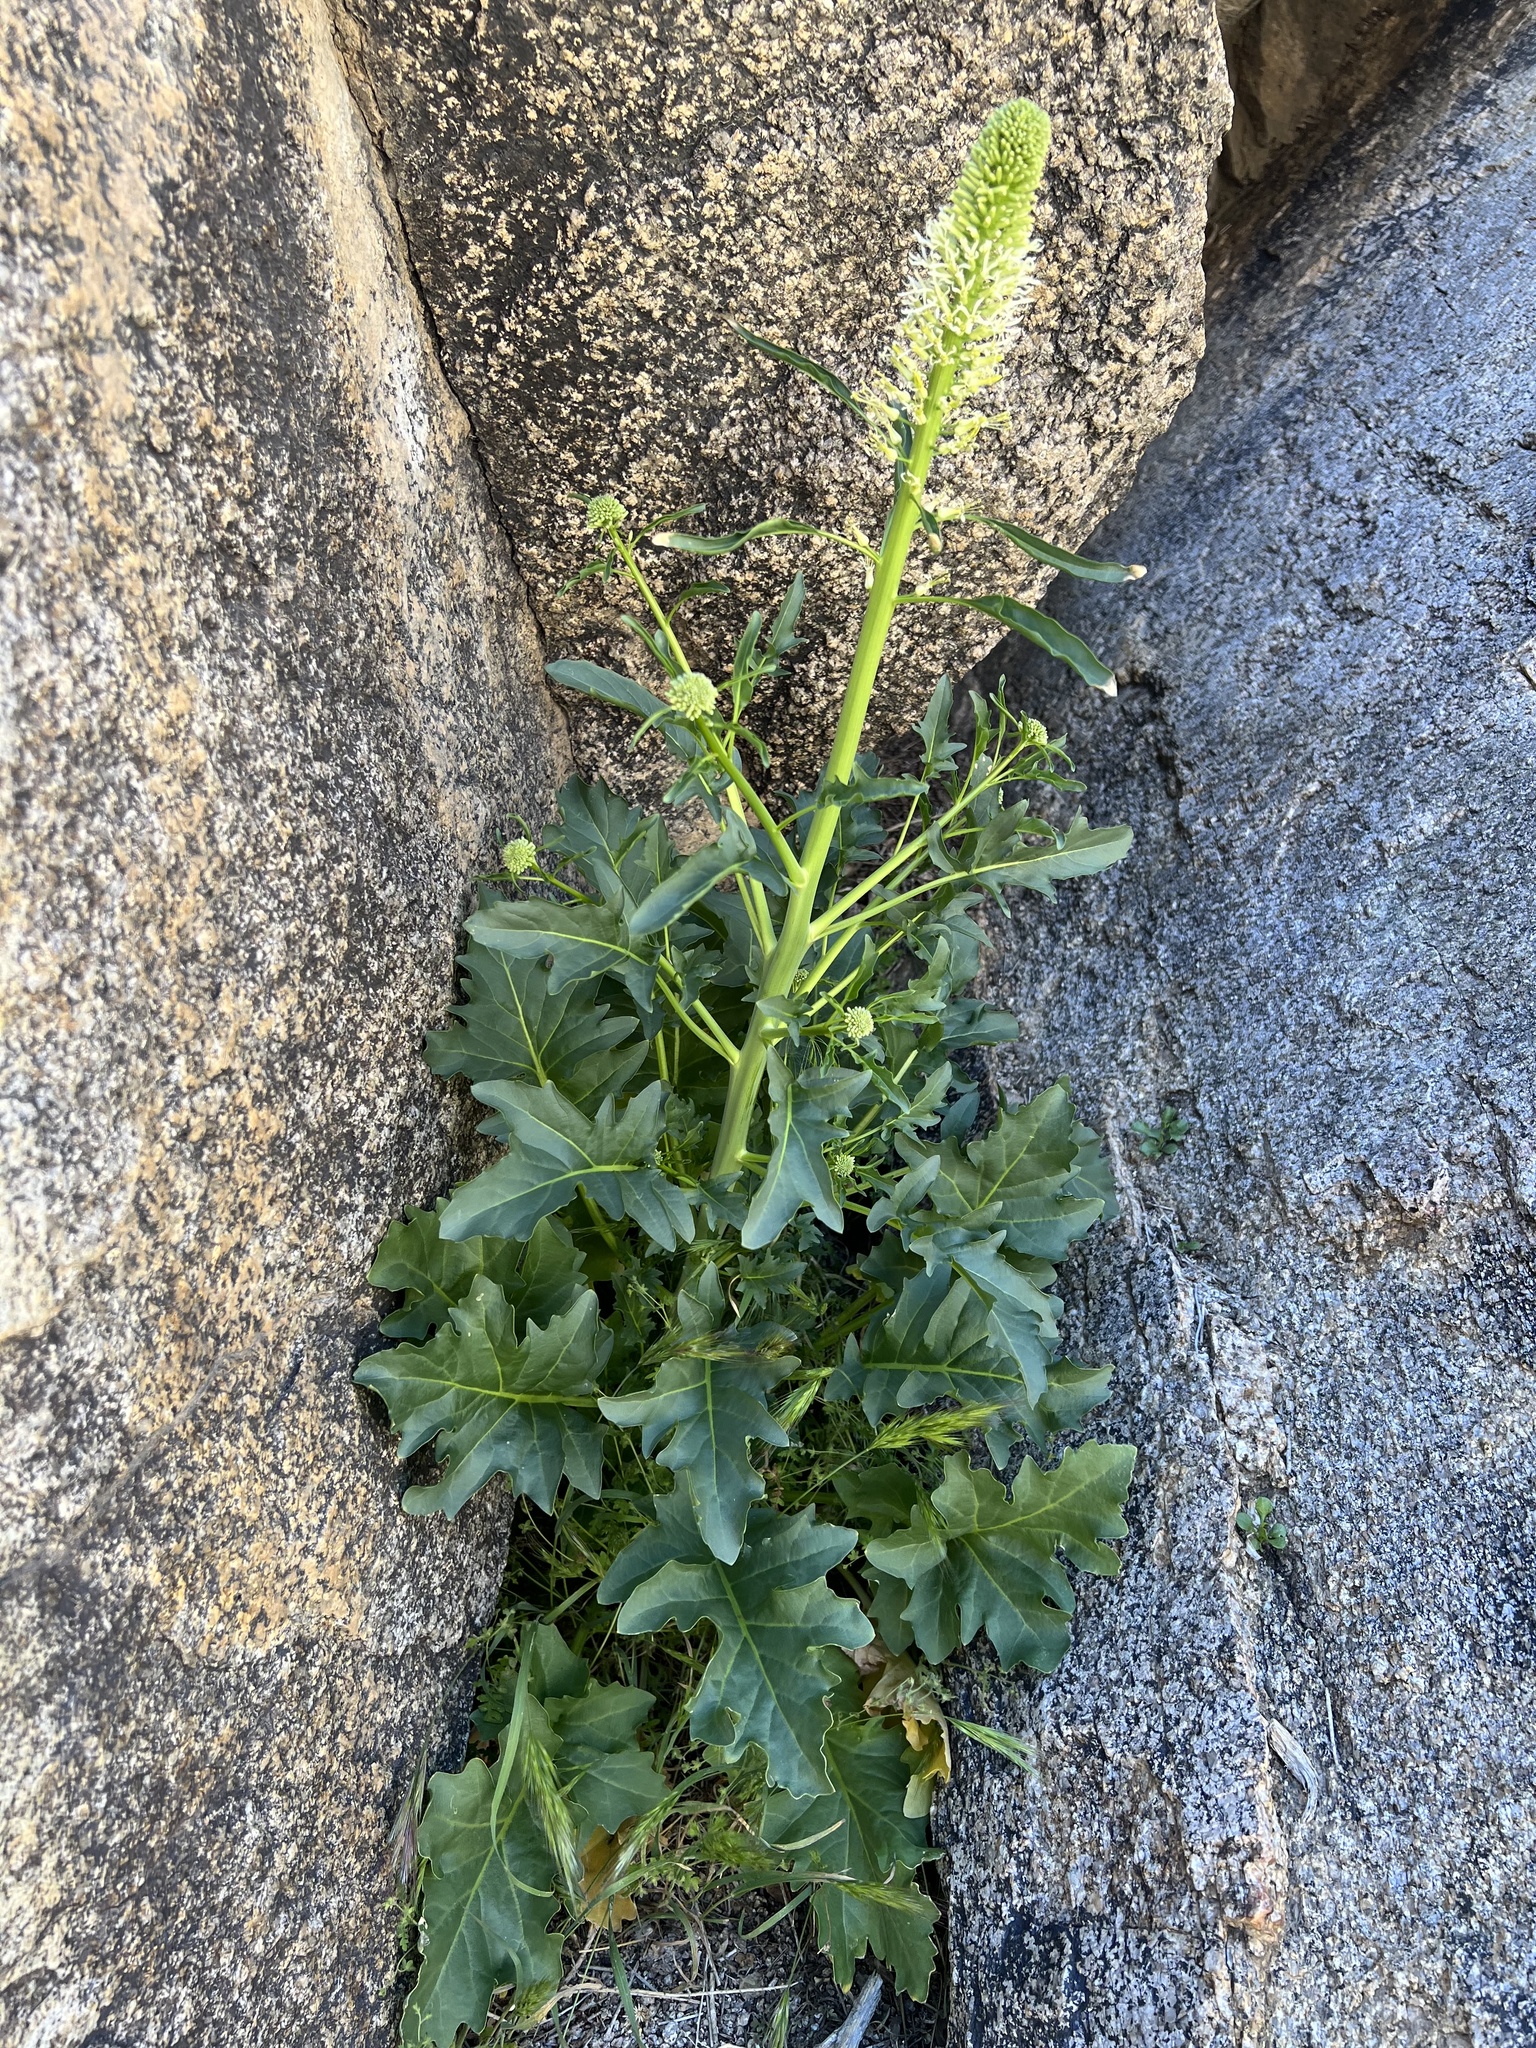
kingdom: Plantae
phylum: Tracheophyta
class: Magnoliopsida
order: Brassicales
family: Brassicaceae
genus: Thelypodium
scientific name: Thelypodium laciniatum
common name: Cut-leaved thelypody
